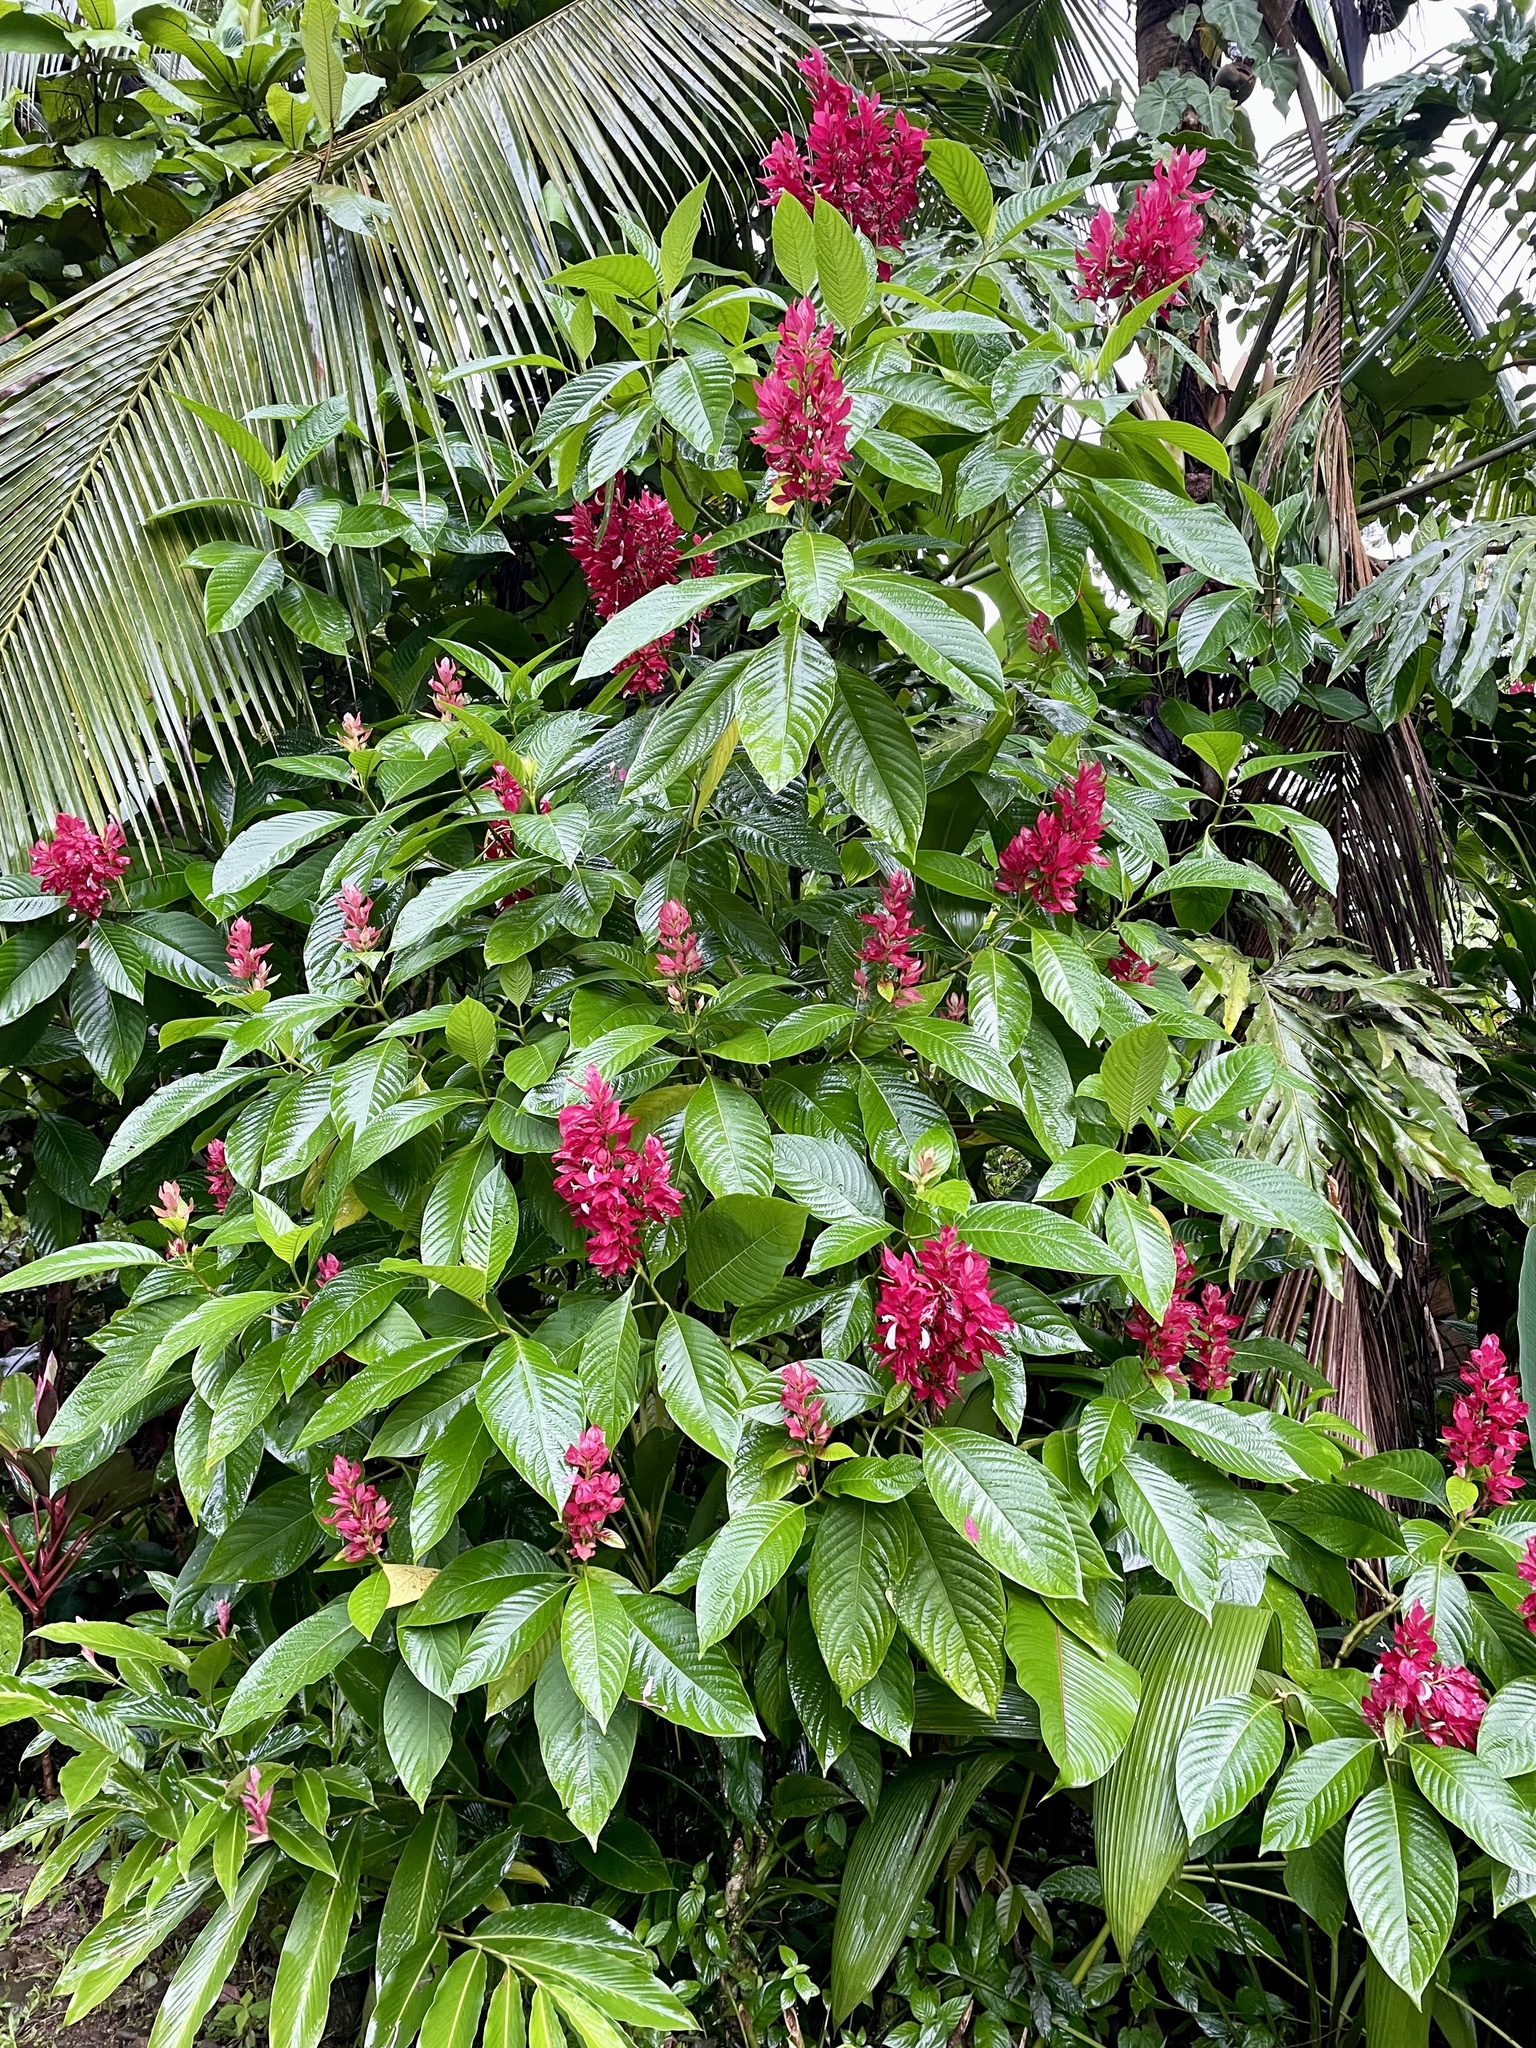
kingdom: Plantae
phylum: Tracheophyta
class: Magnoliopsida
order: Lamiales
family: Acanthaceae
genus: Megaskepasma
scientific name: Megaskepasma erythrochlamys
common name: Brazilian red-cloak
